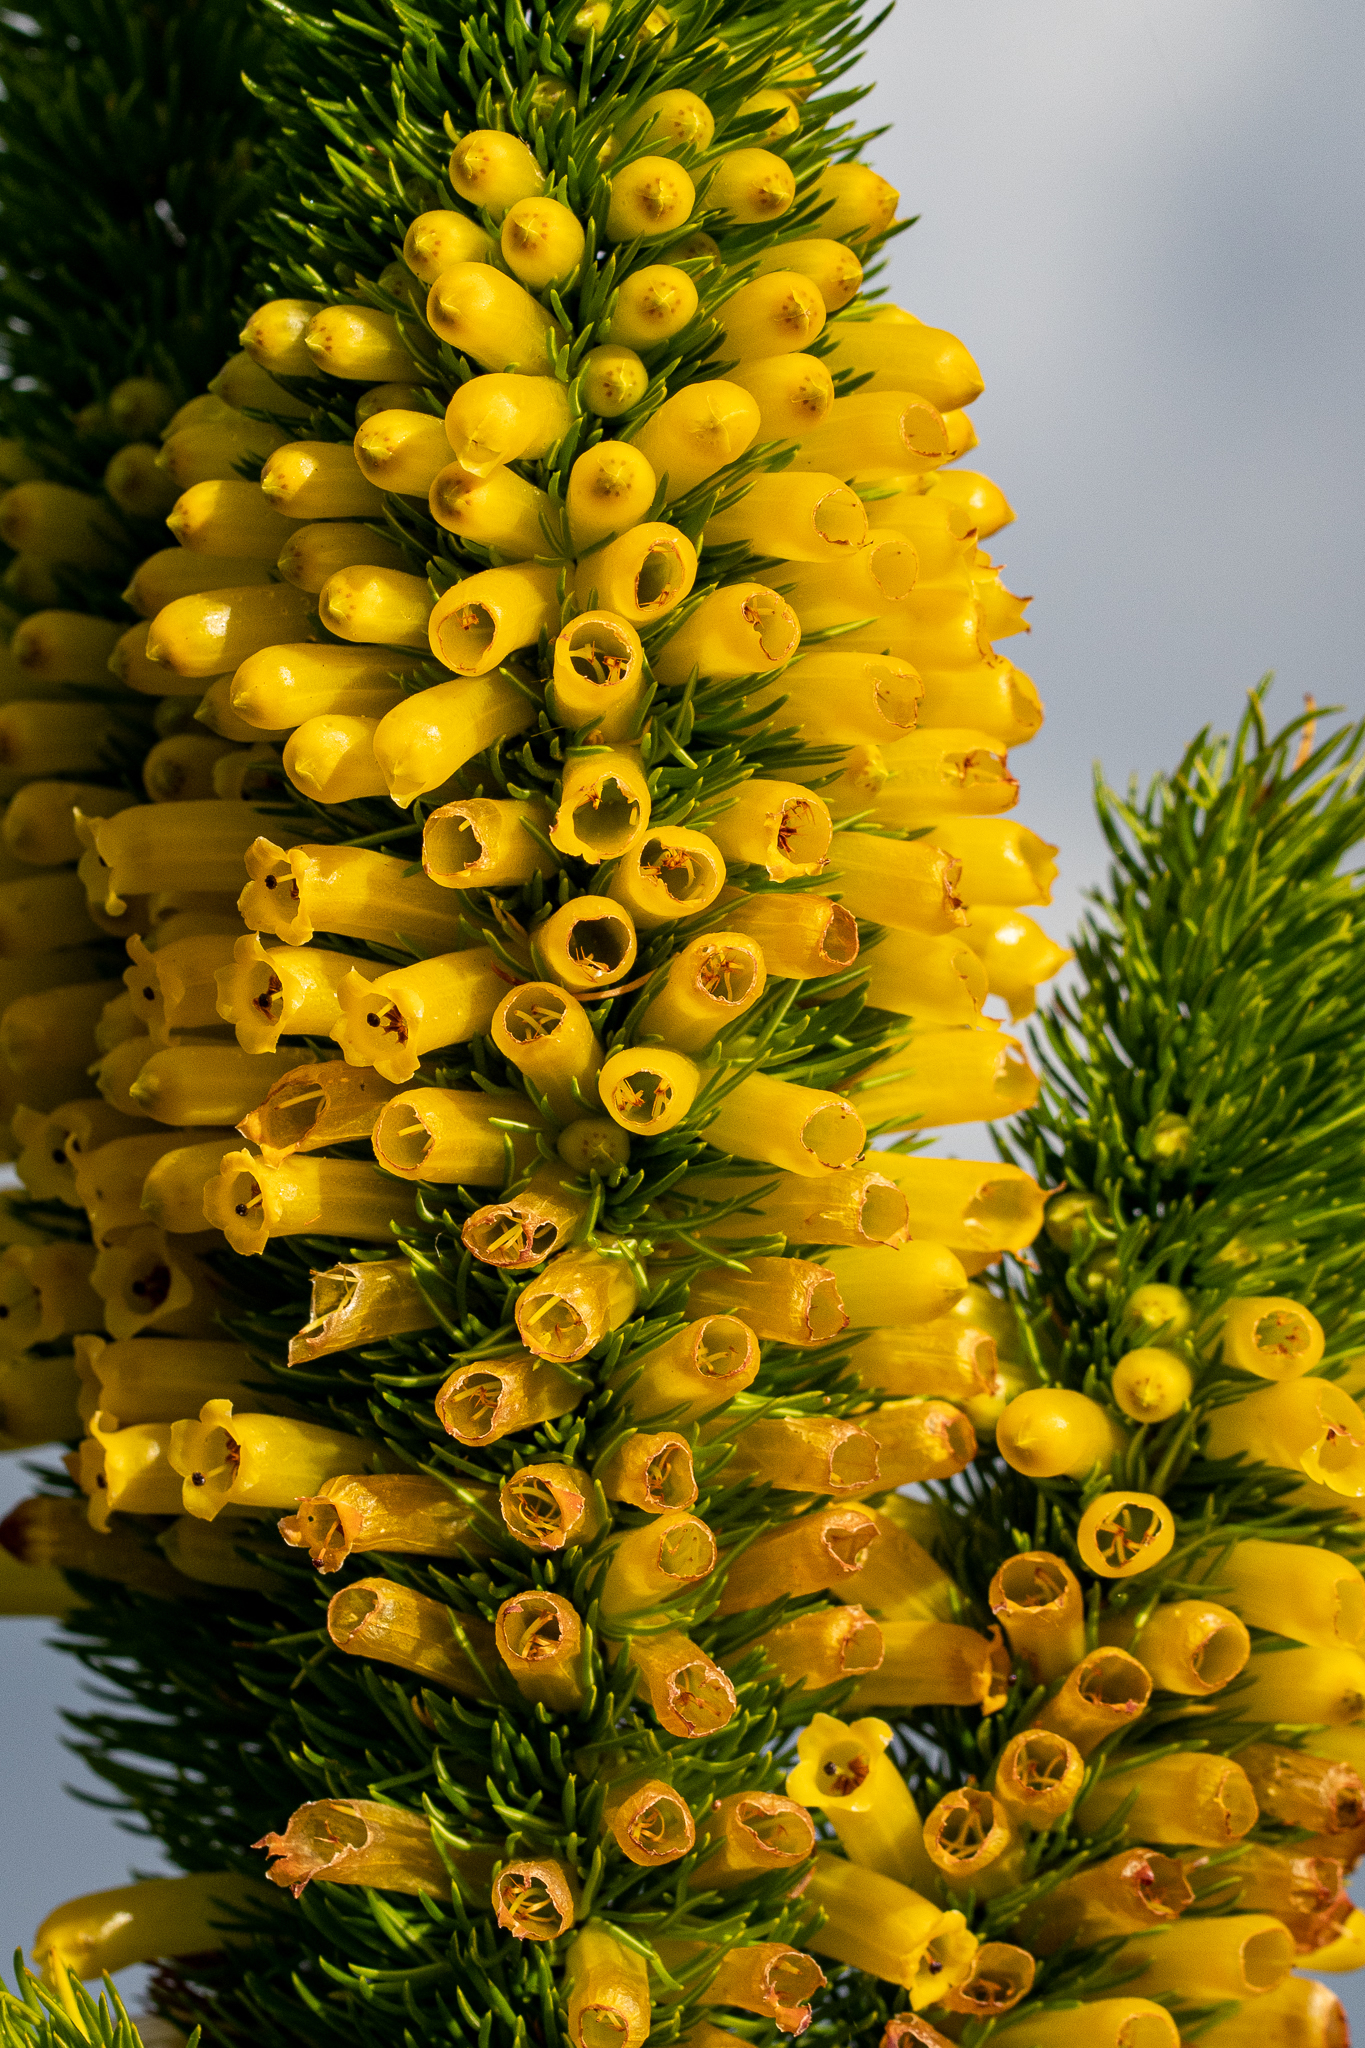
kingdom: Plantae
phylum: Tracheophyta
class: Magnoliopsida
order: Ericales
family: Ericaceae
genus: Erica
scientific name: Erica patersonia
